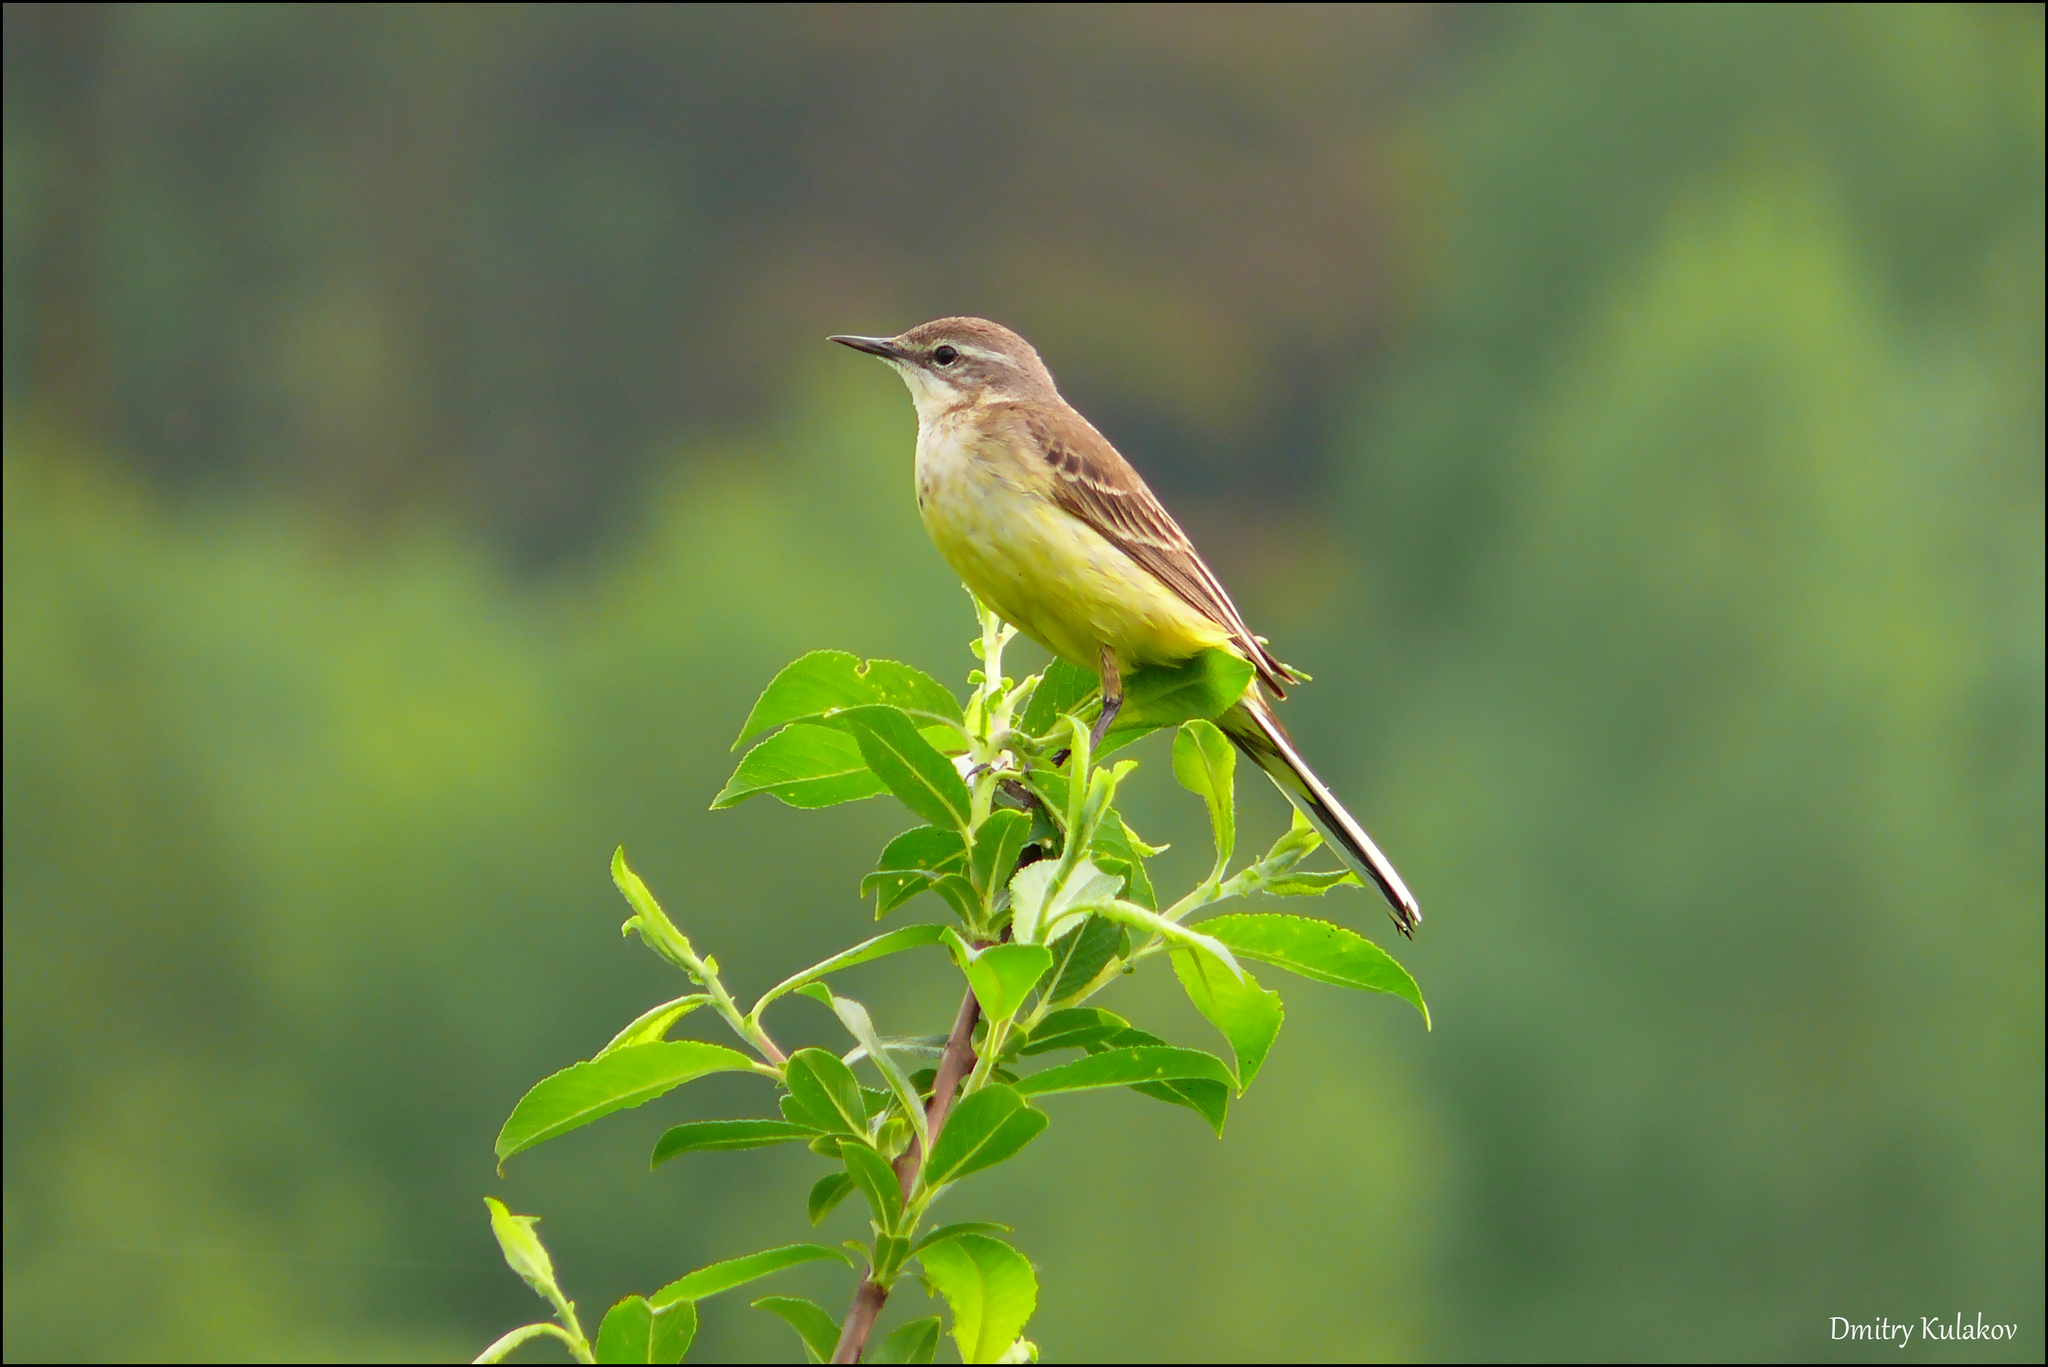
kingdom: Animalia
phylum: Chordata
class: Aves
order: Passeriformes
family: Motacillidae
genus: Motacilla
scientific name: Motacilla flava
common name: Western yellow wagtail
